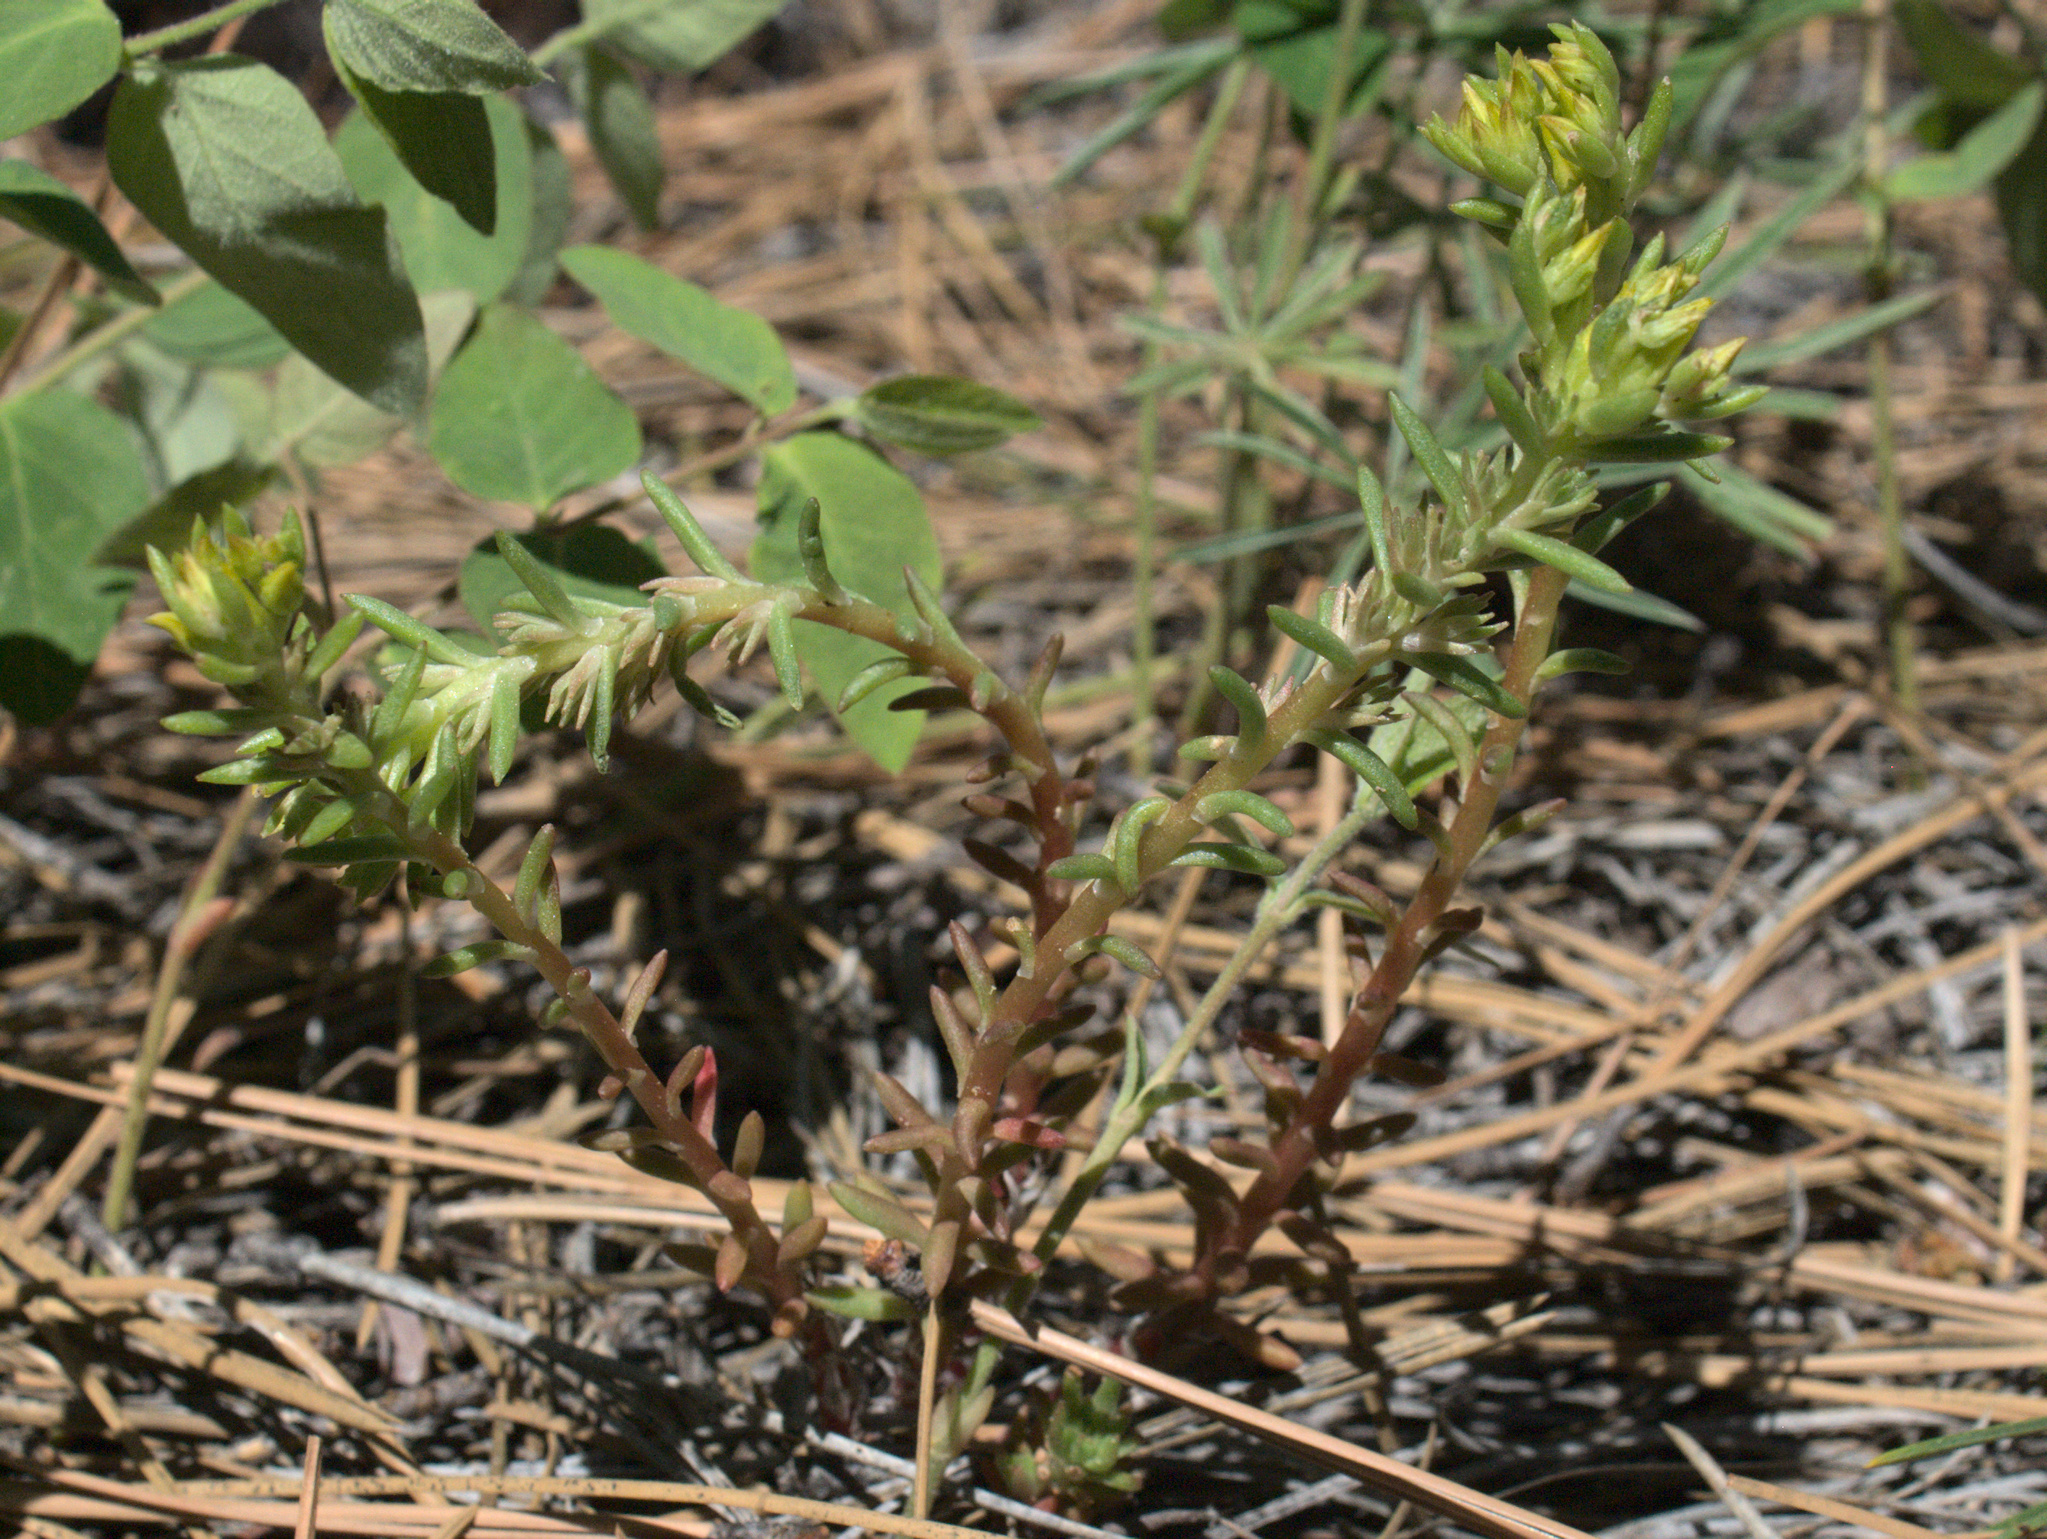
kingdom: Plantae
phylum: Tracheophyta
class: Magnoliopsida
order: Saxifragales
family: Crassulaceae
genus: Sedum
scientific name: Sedum stenopetalum
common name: Narrow-petaled stonecrop
